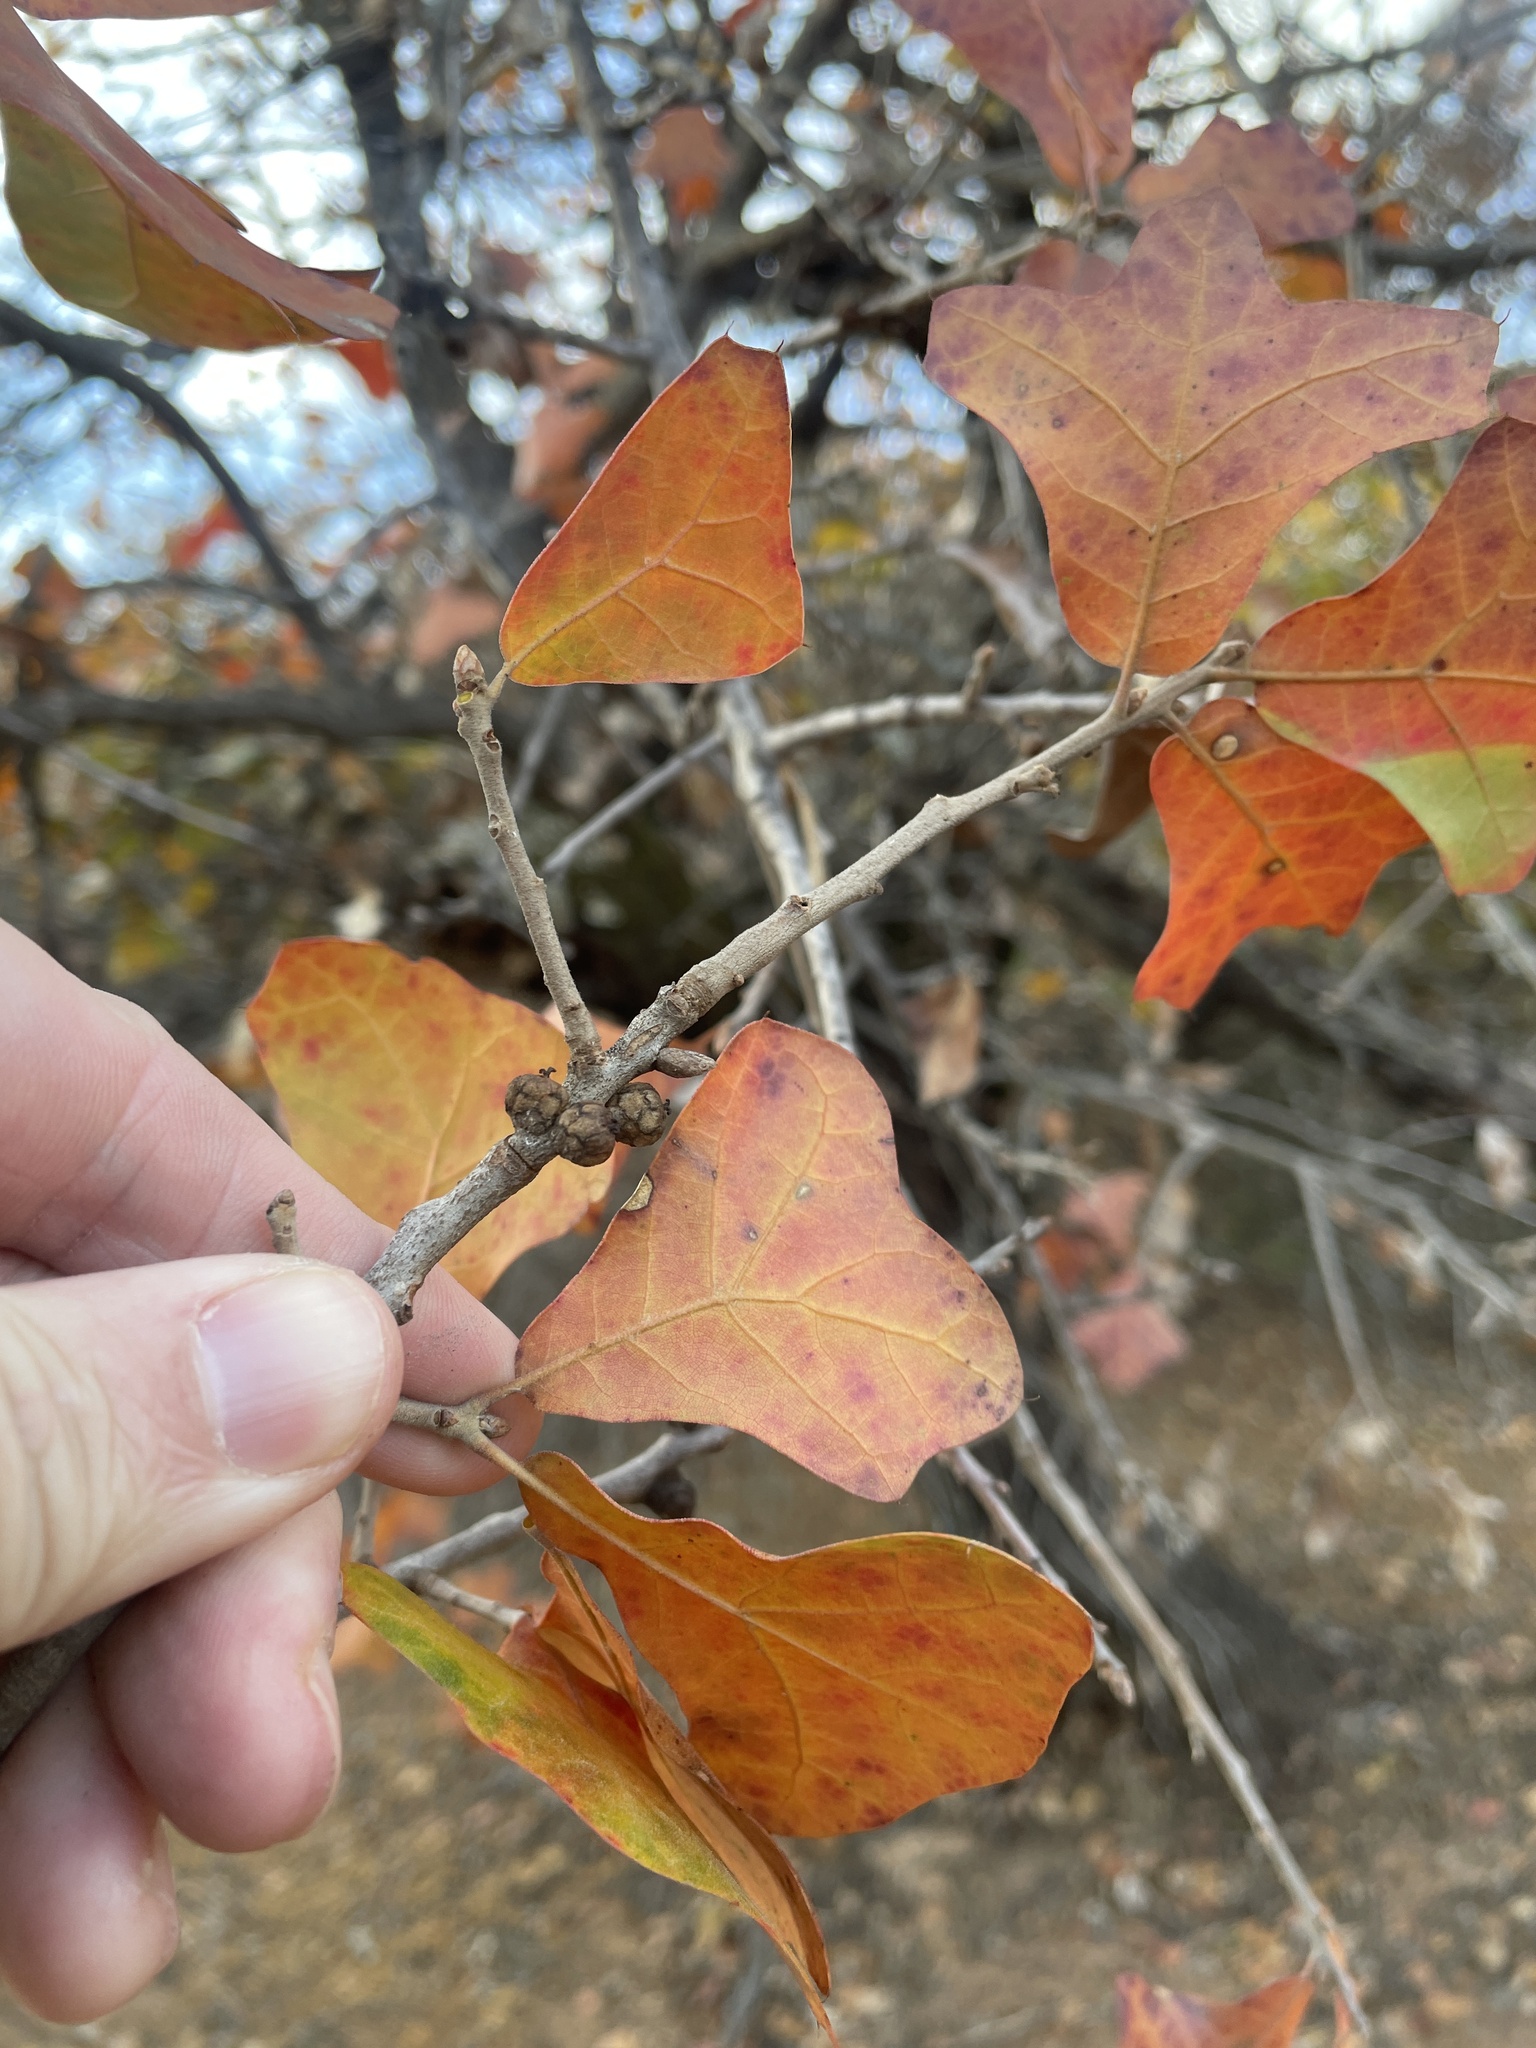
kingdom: Plantae
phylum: Tracheophyta
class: Magnoliopsida
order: Fagales
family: Fagaceae
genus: Quercus
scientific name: Quercus marilandica
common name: Blackjack oak
